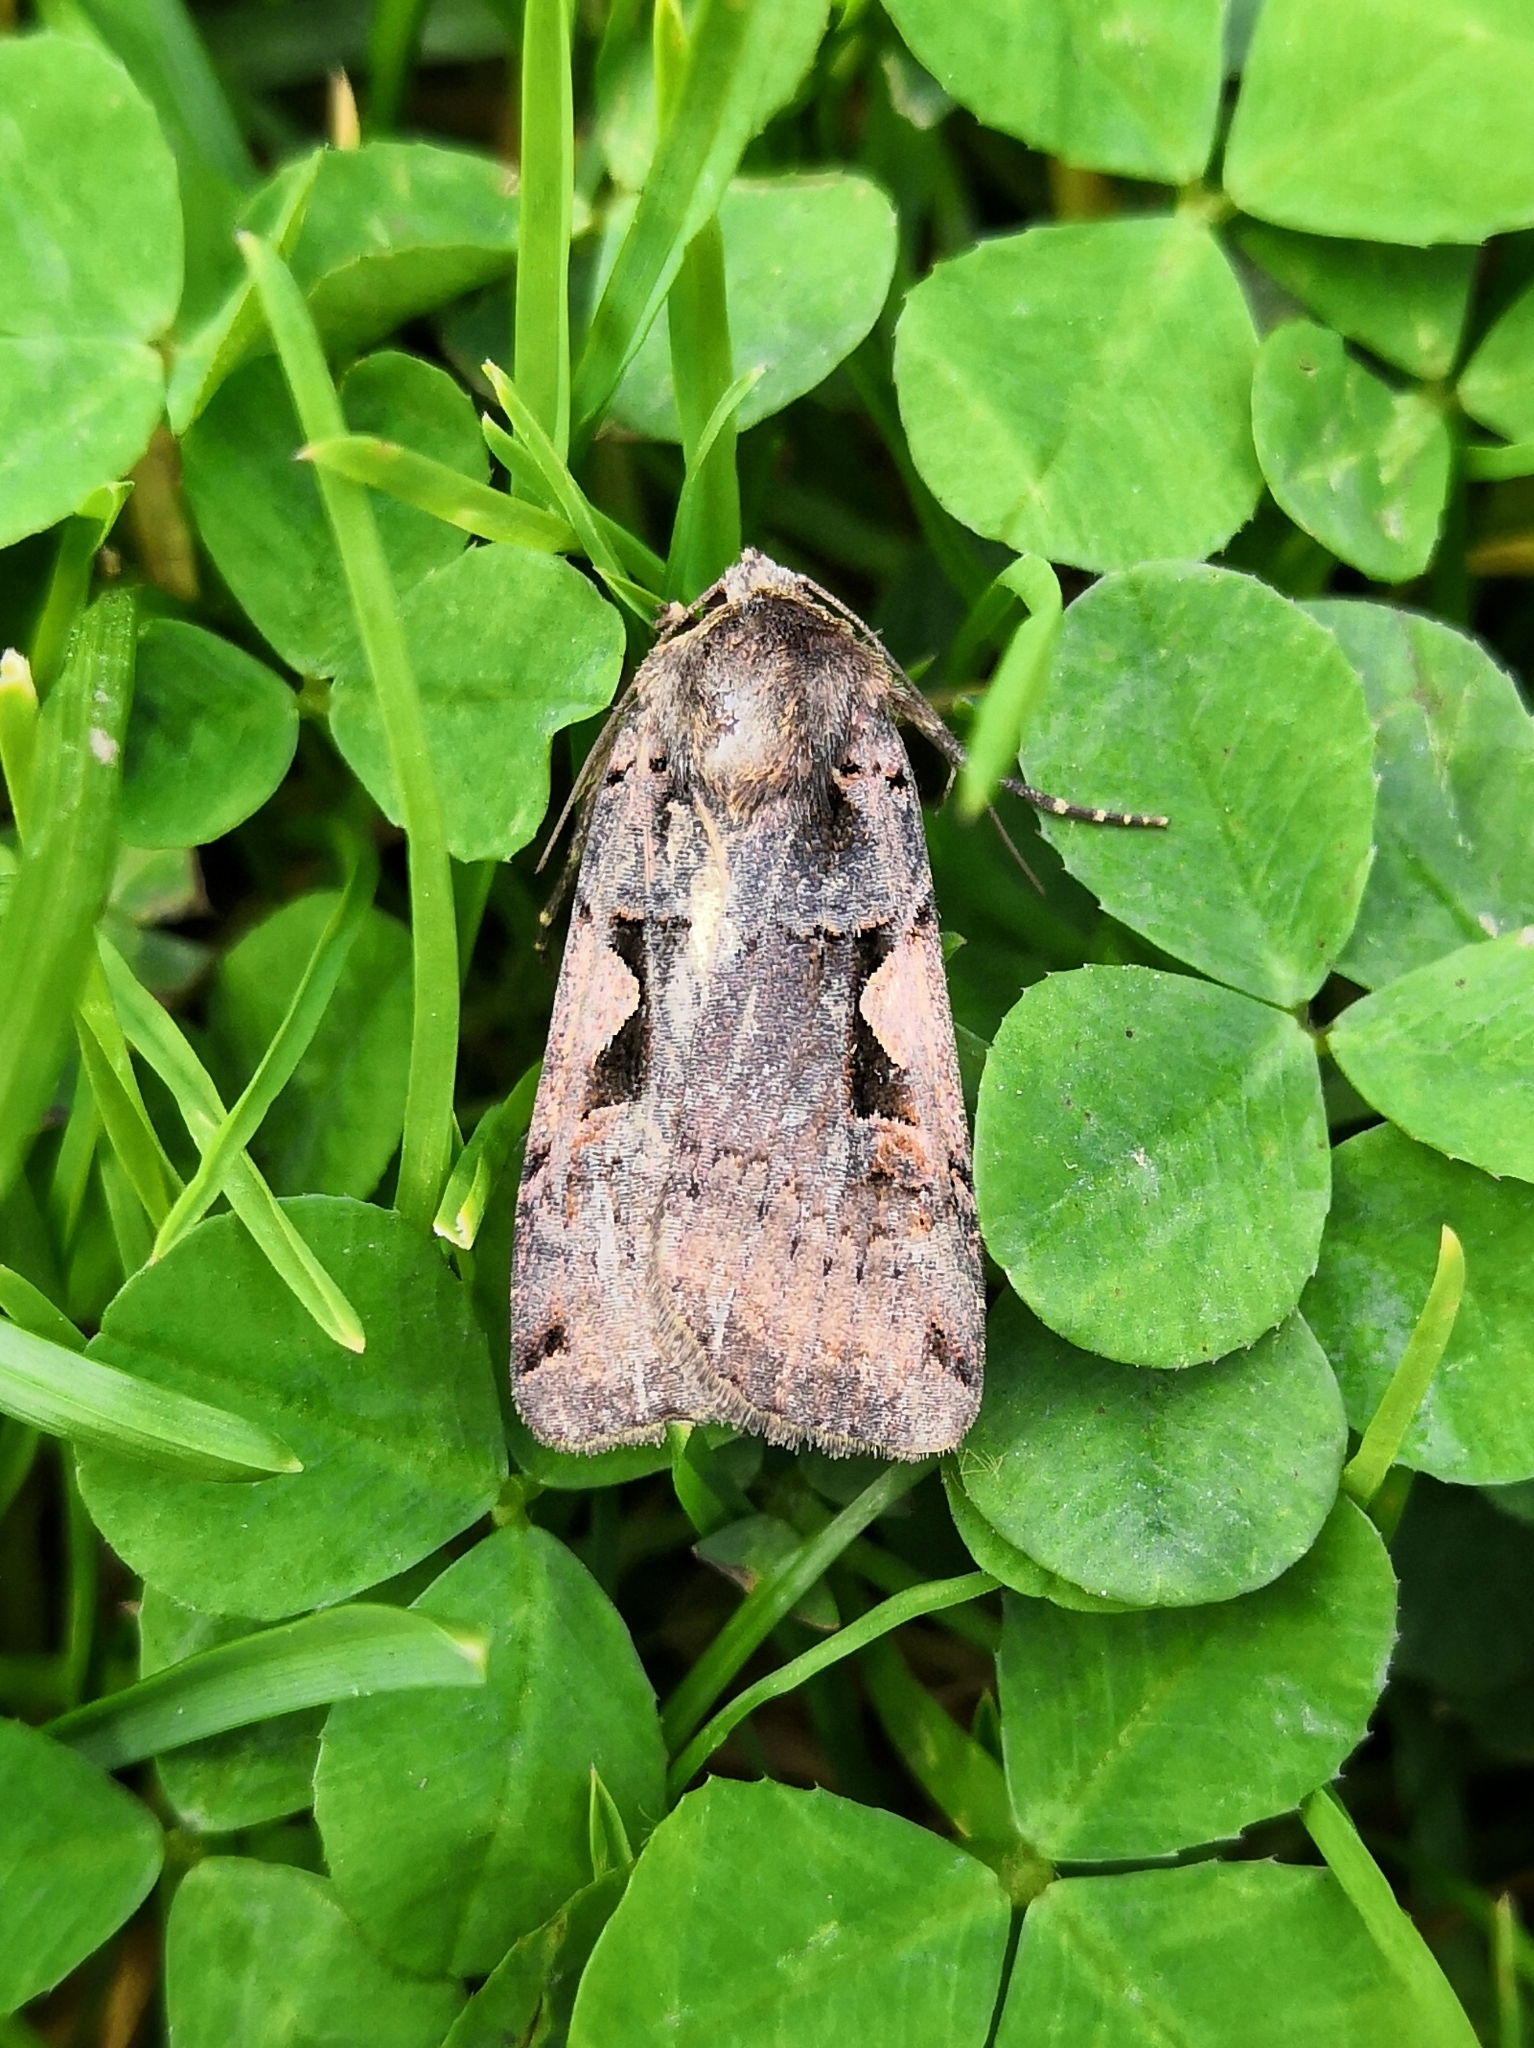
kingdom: Animalia
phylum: Arthropoda
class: Insecta
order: Lepidoptera
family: Noctuidae
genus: Xestia
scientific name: Xestia c-nigrum
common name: Setaceous hebrew character
